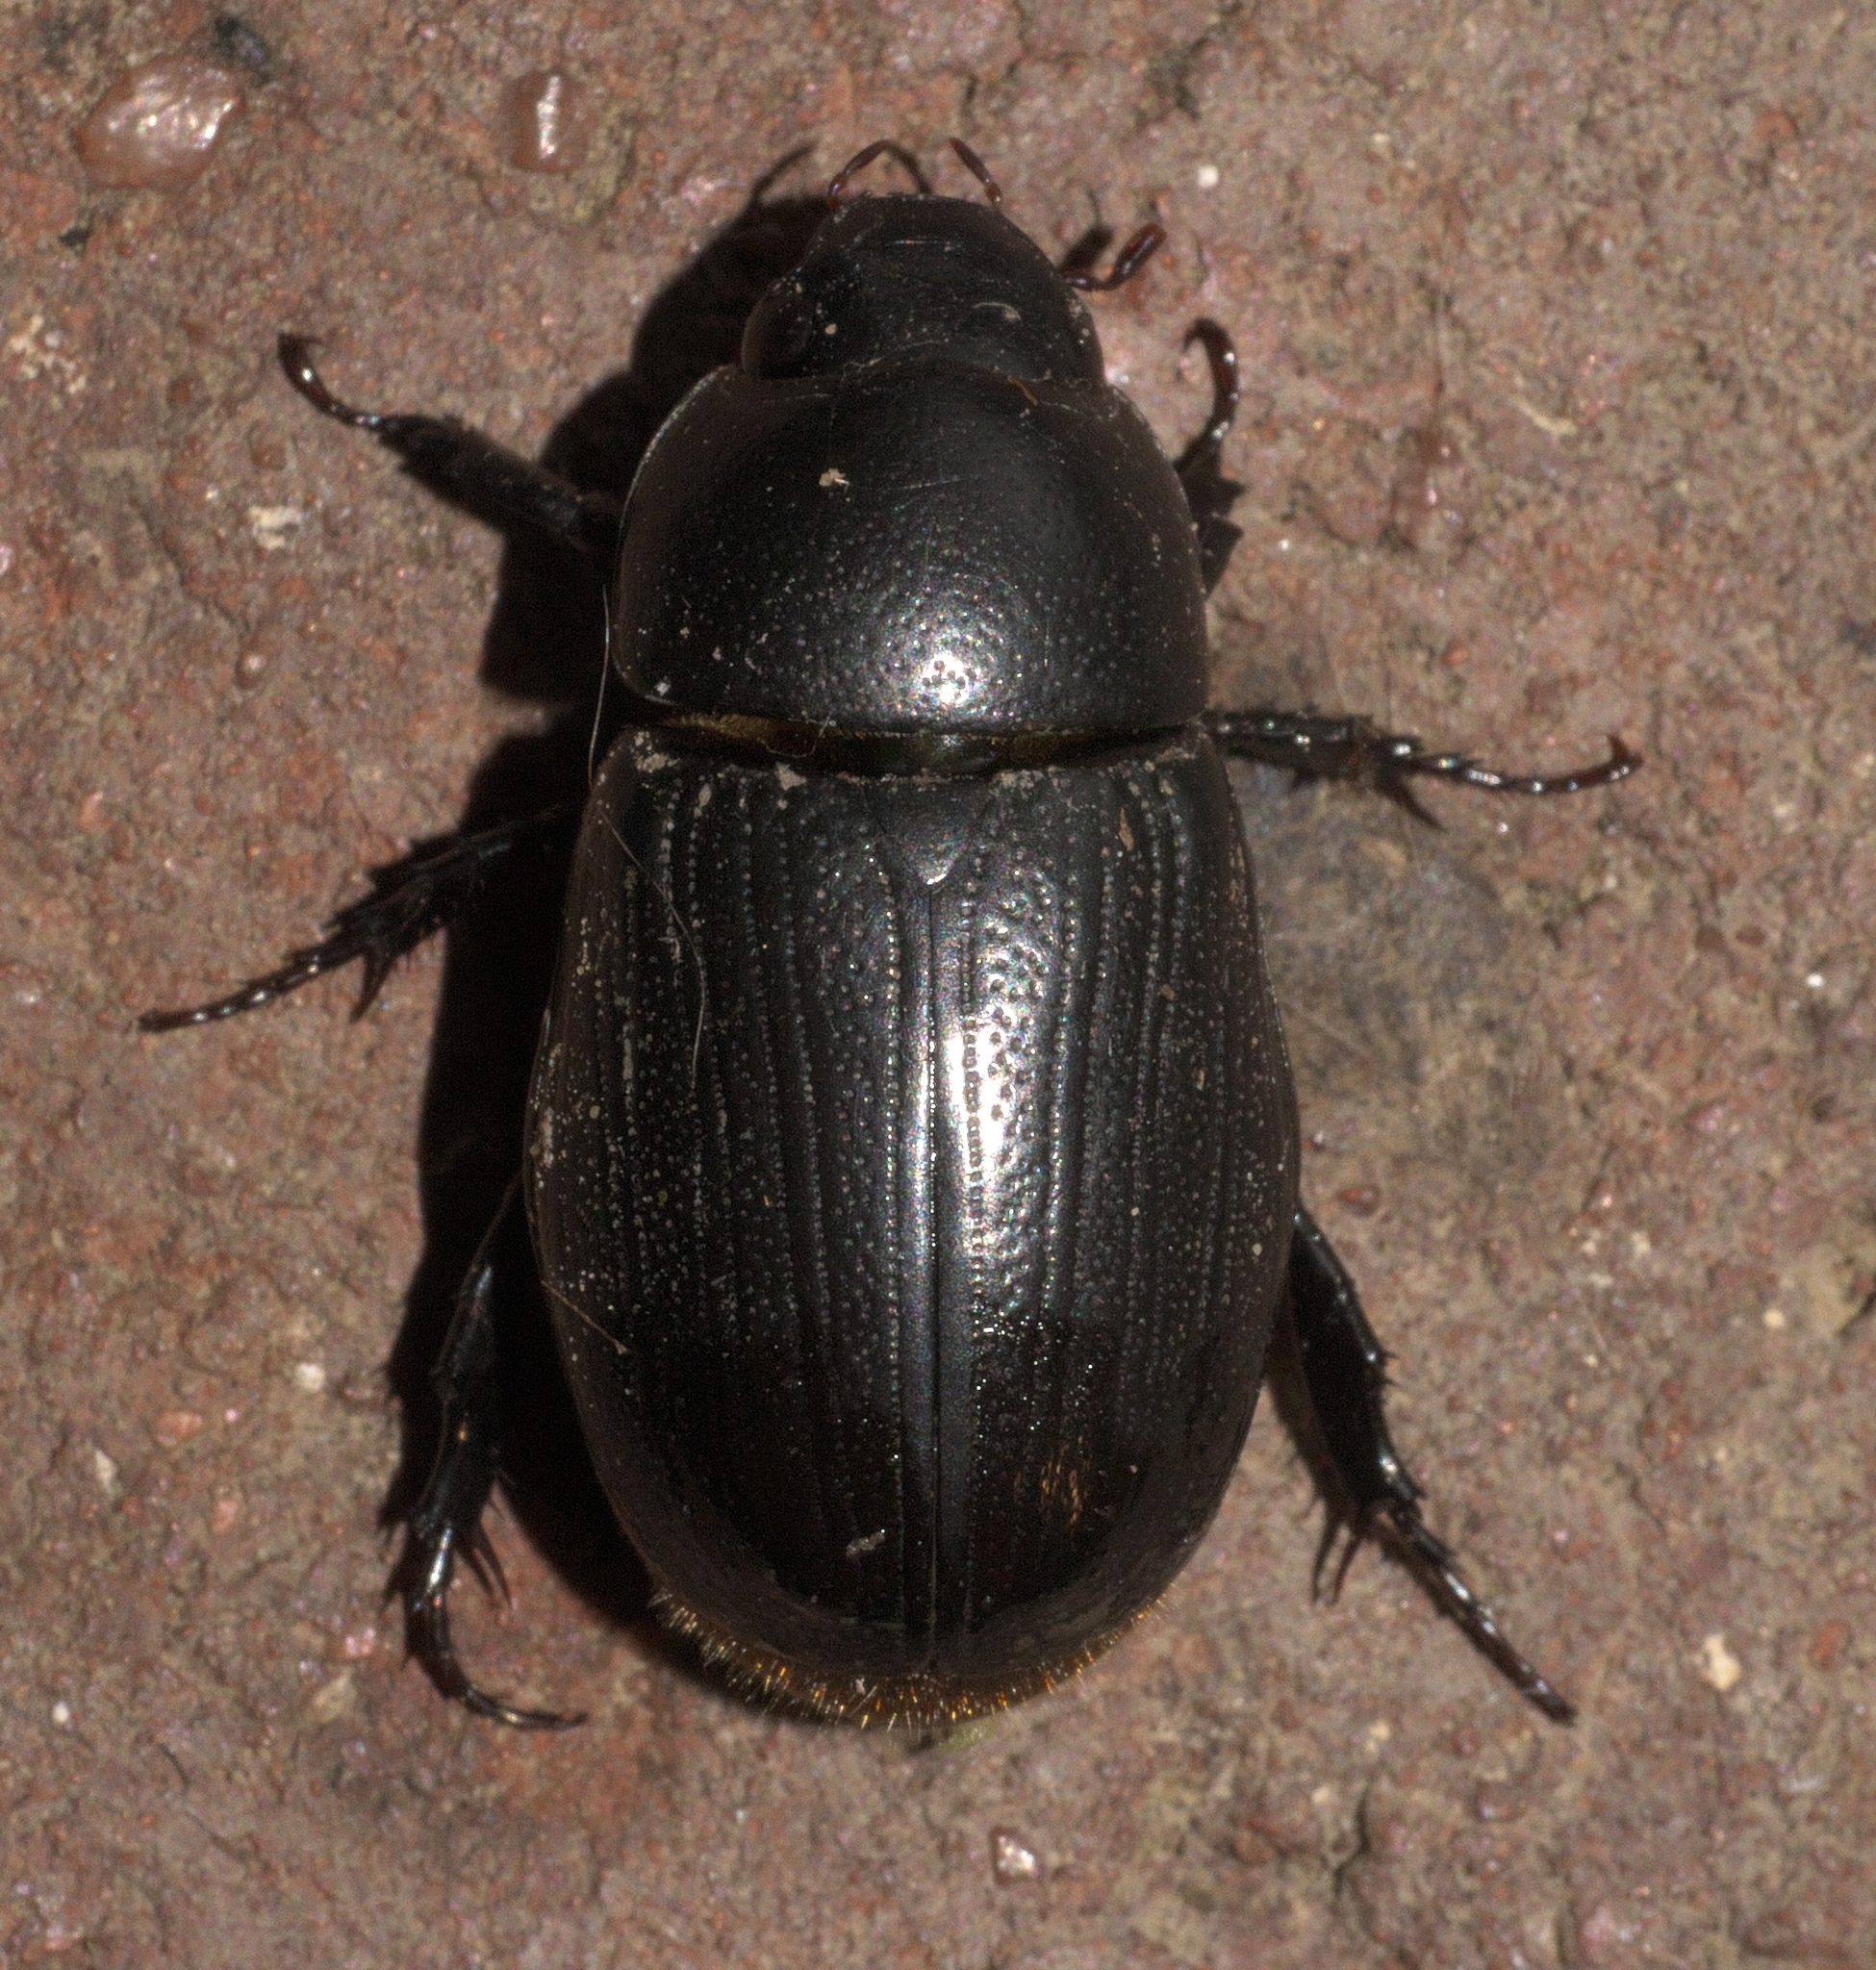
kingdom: Animalia
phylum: Arthropoda
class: Insecta
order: Coleoptera
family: Scarabaeidae
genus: Dyscinetus
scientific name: Dyscinetus morator
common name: Rice beetle
